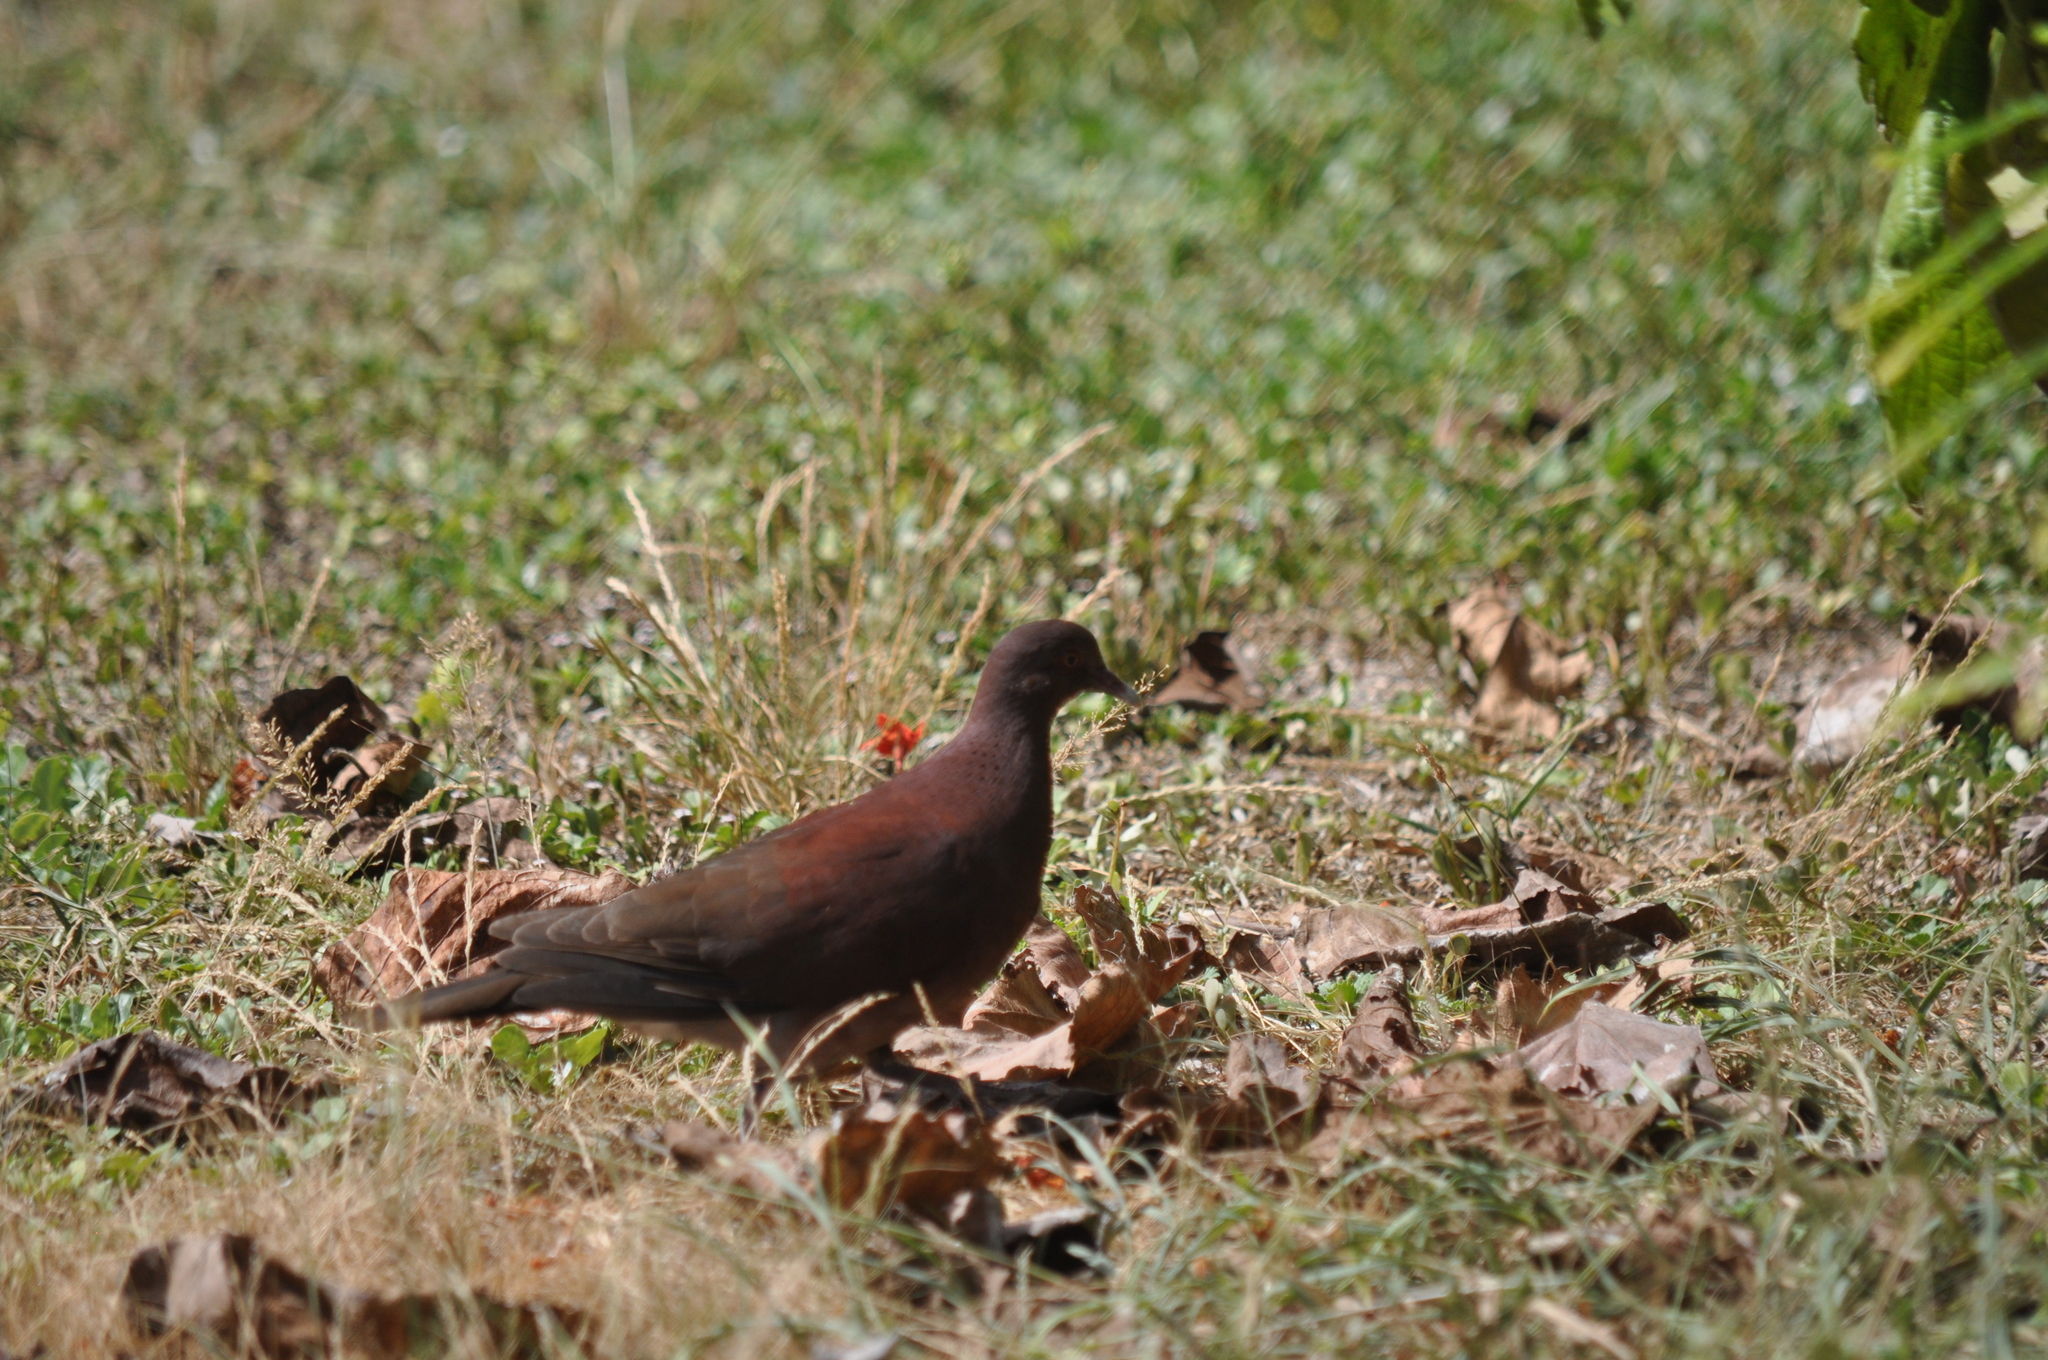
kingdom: Animalia
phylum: Chordata
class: Aves
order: Columbiformes
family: Columbidae
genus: Nesoenas
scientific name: Nesoenas picturatus
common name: Malagasy turtle dove
